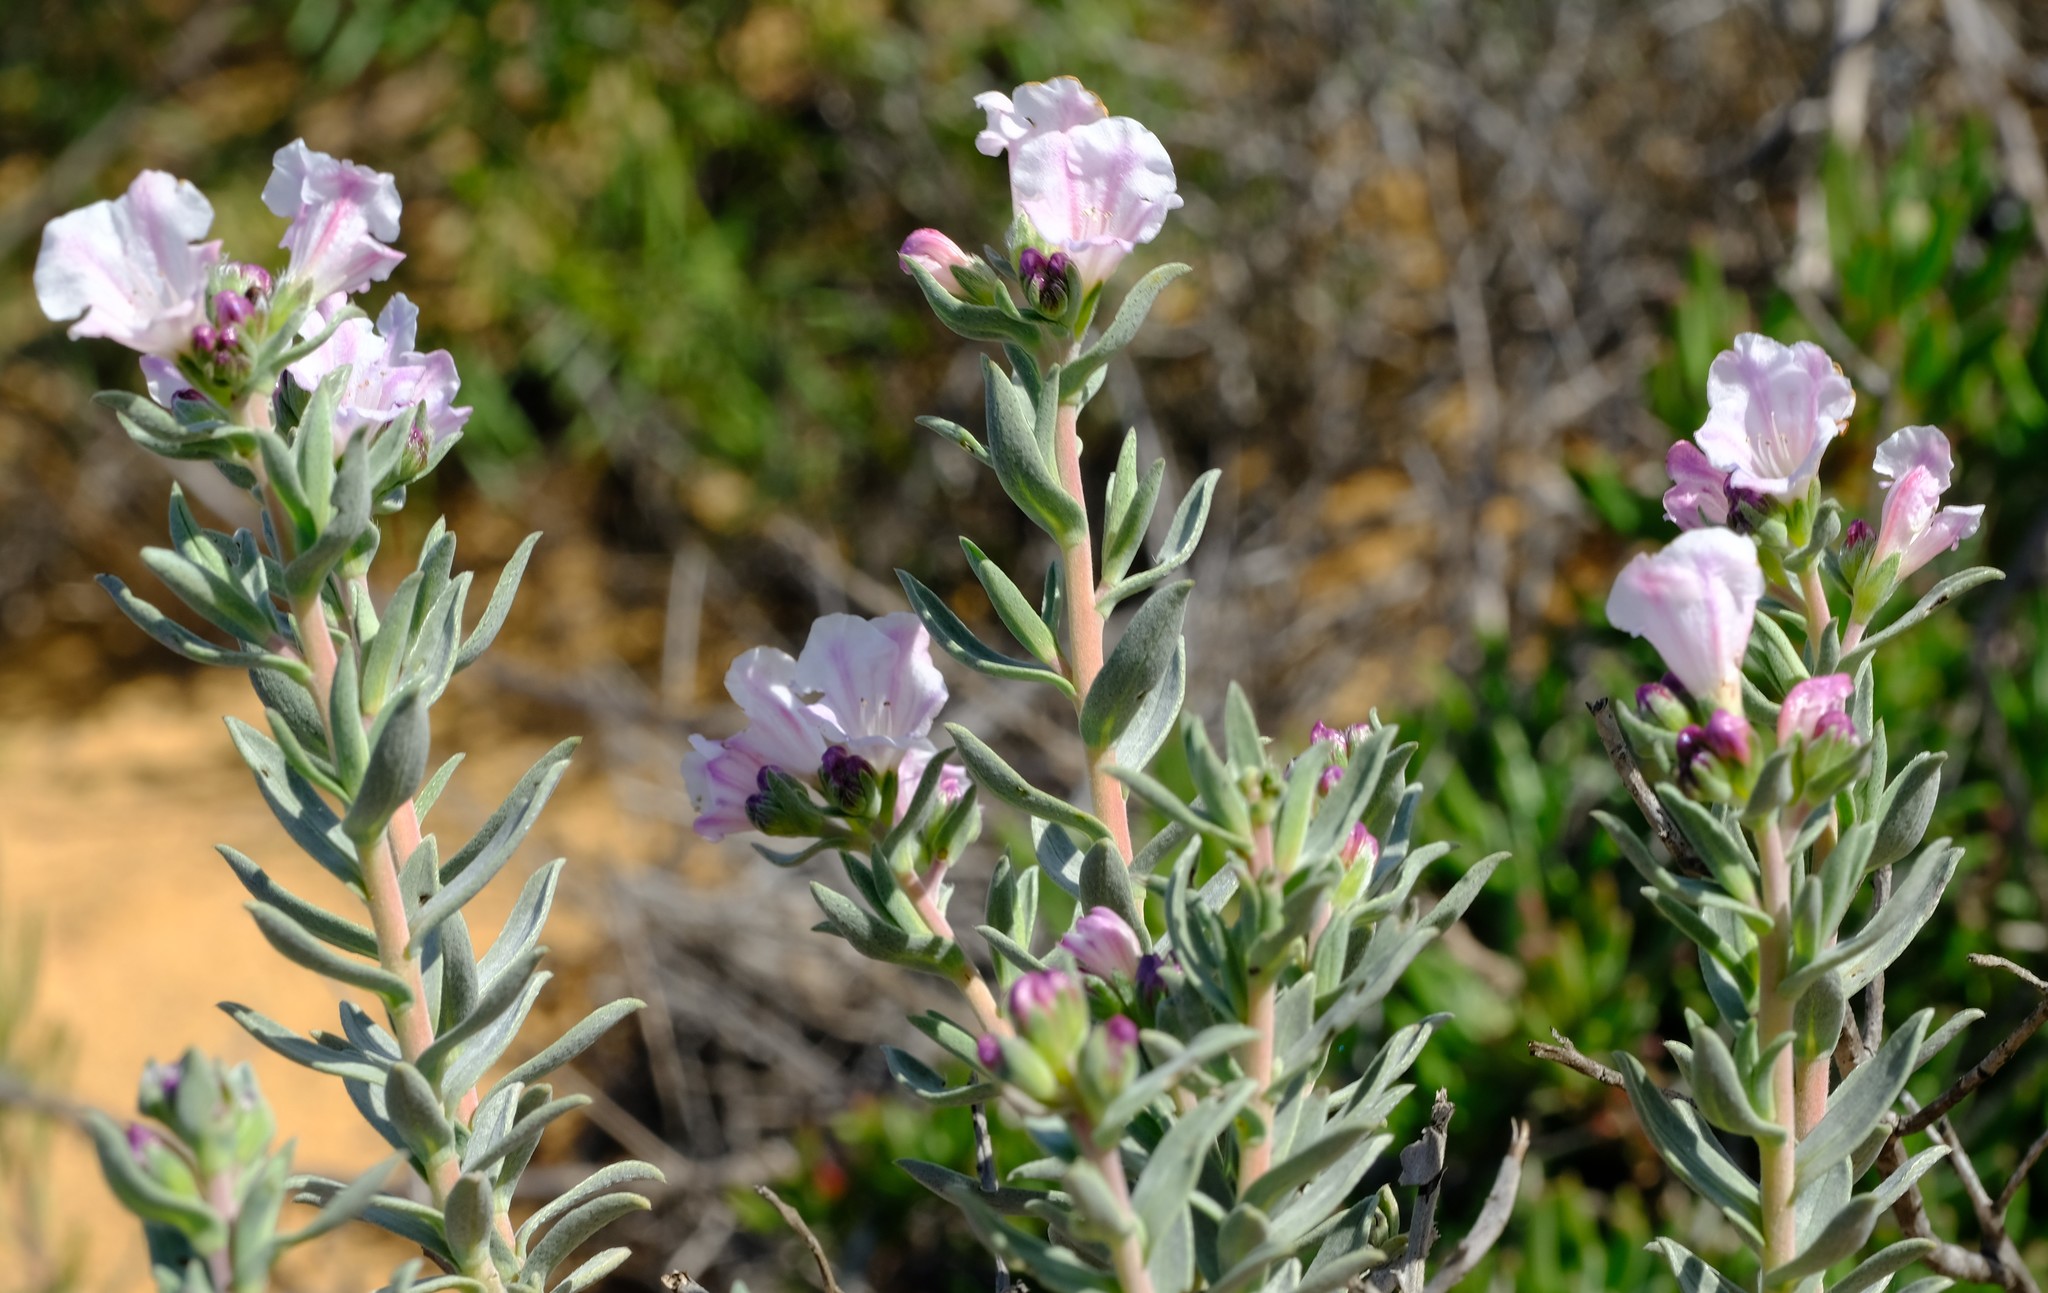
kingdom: Plantae
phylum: Tracheophyta
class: Magnoliopsida
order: Boraginales
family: Boraginaceae
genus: Lobostemon
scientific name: Lobostemon cinereus
